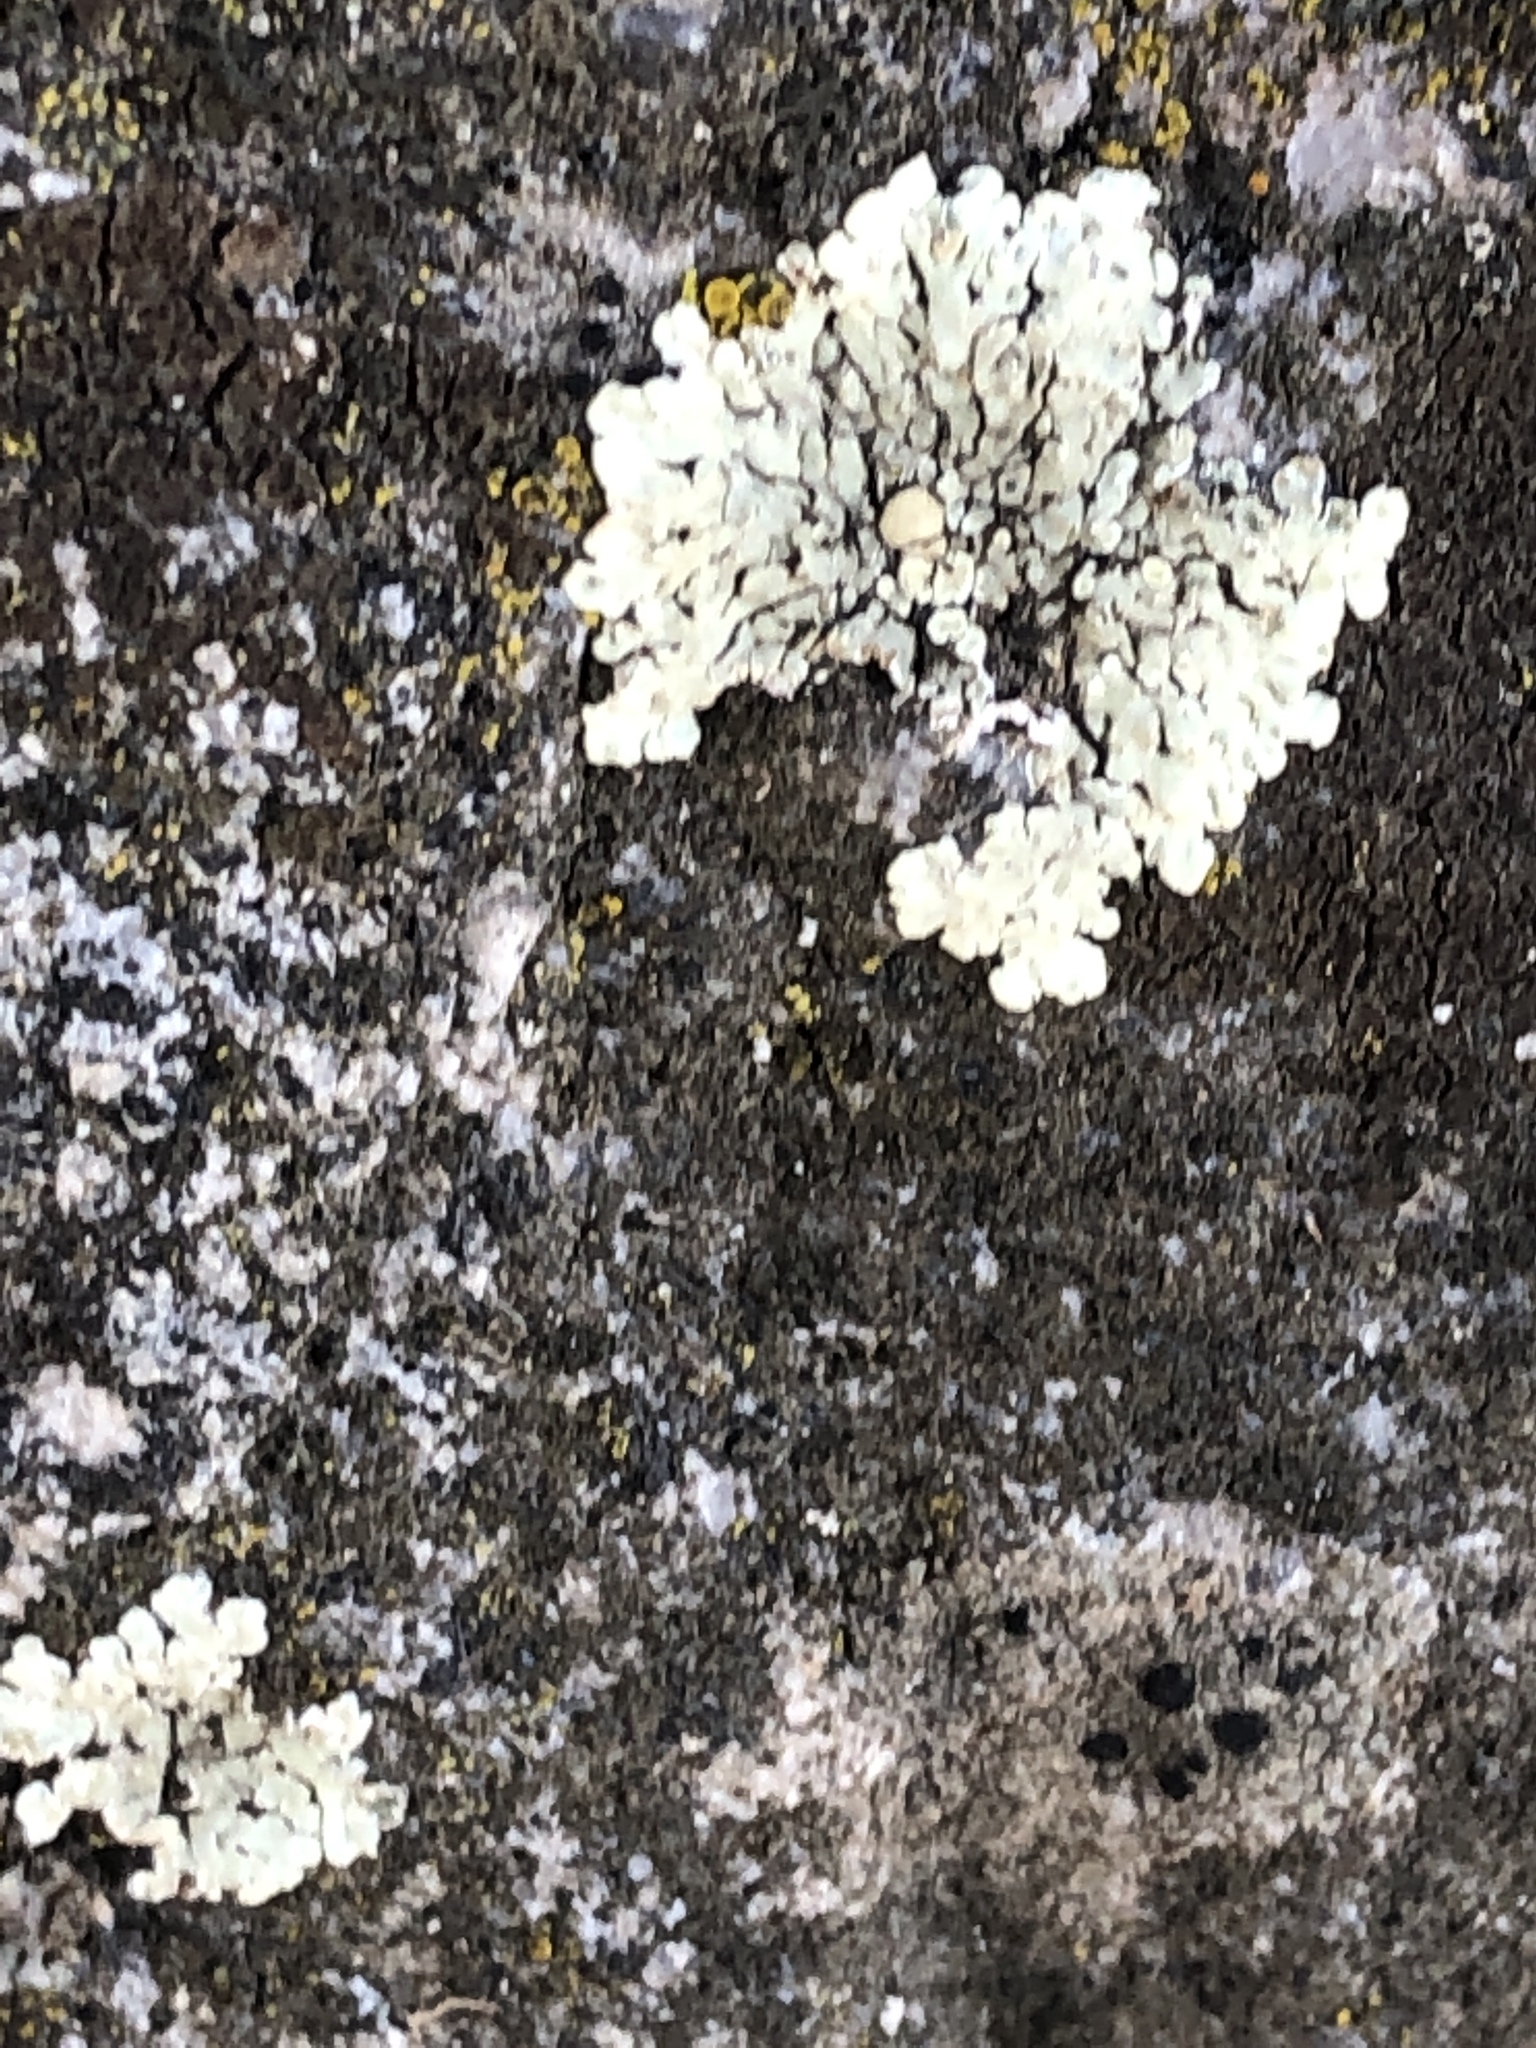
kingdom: Fungi
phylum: Ascomycota
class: Lecanoromycetes
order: Lecanorales
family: Lecanoraceae
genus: Protoparmeliopsis
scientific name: Protoparmeliopsis muralis
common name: Stonewall rim lichen
